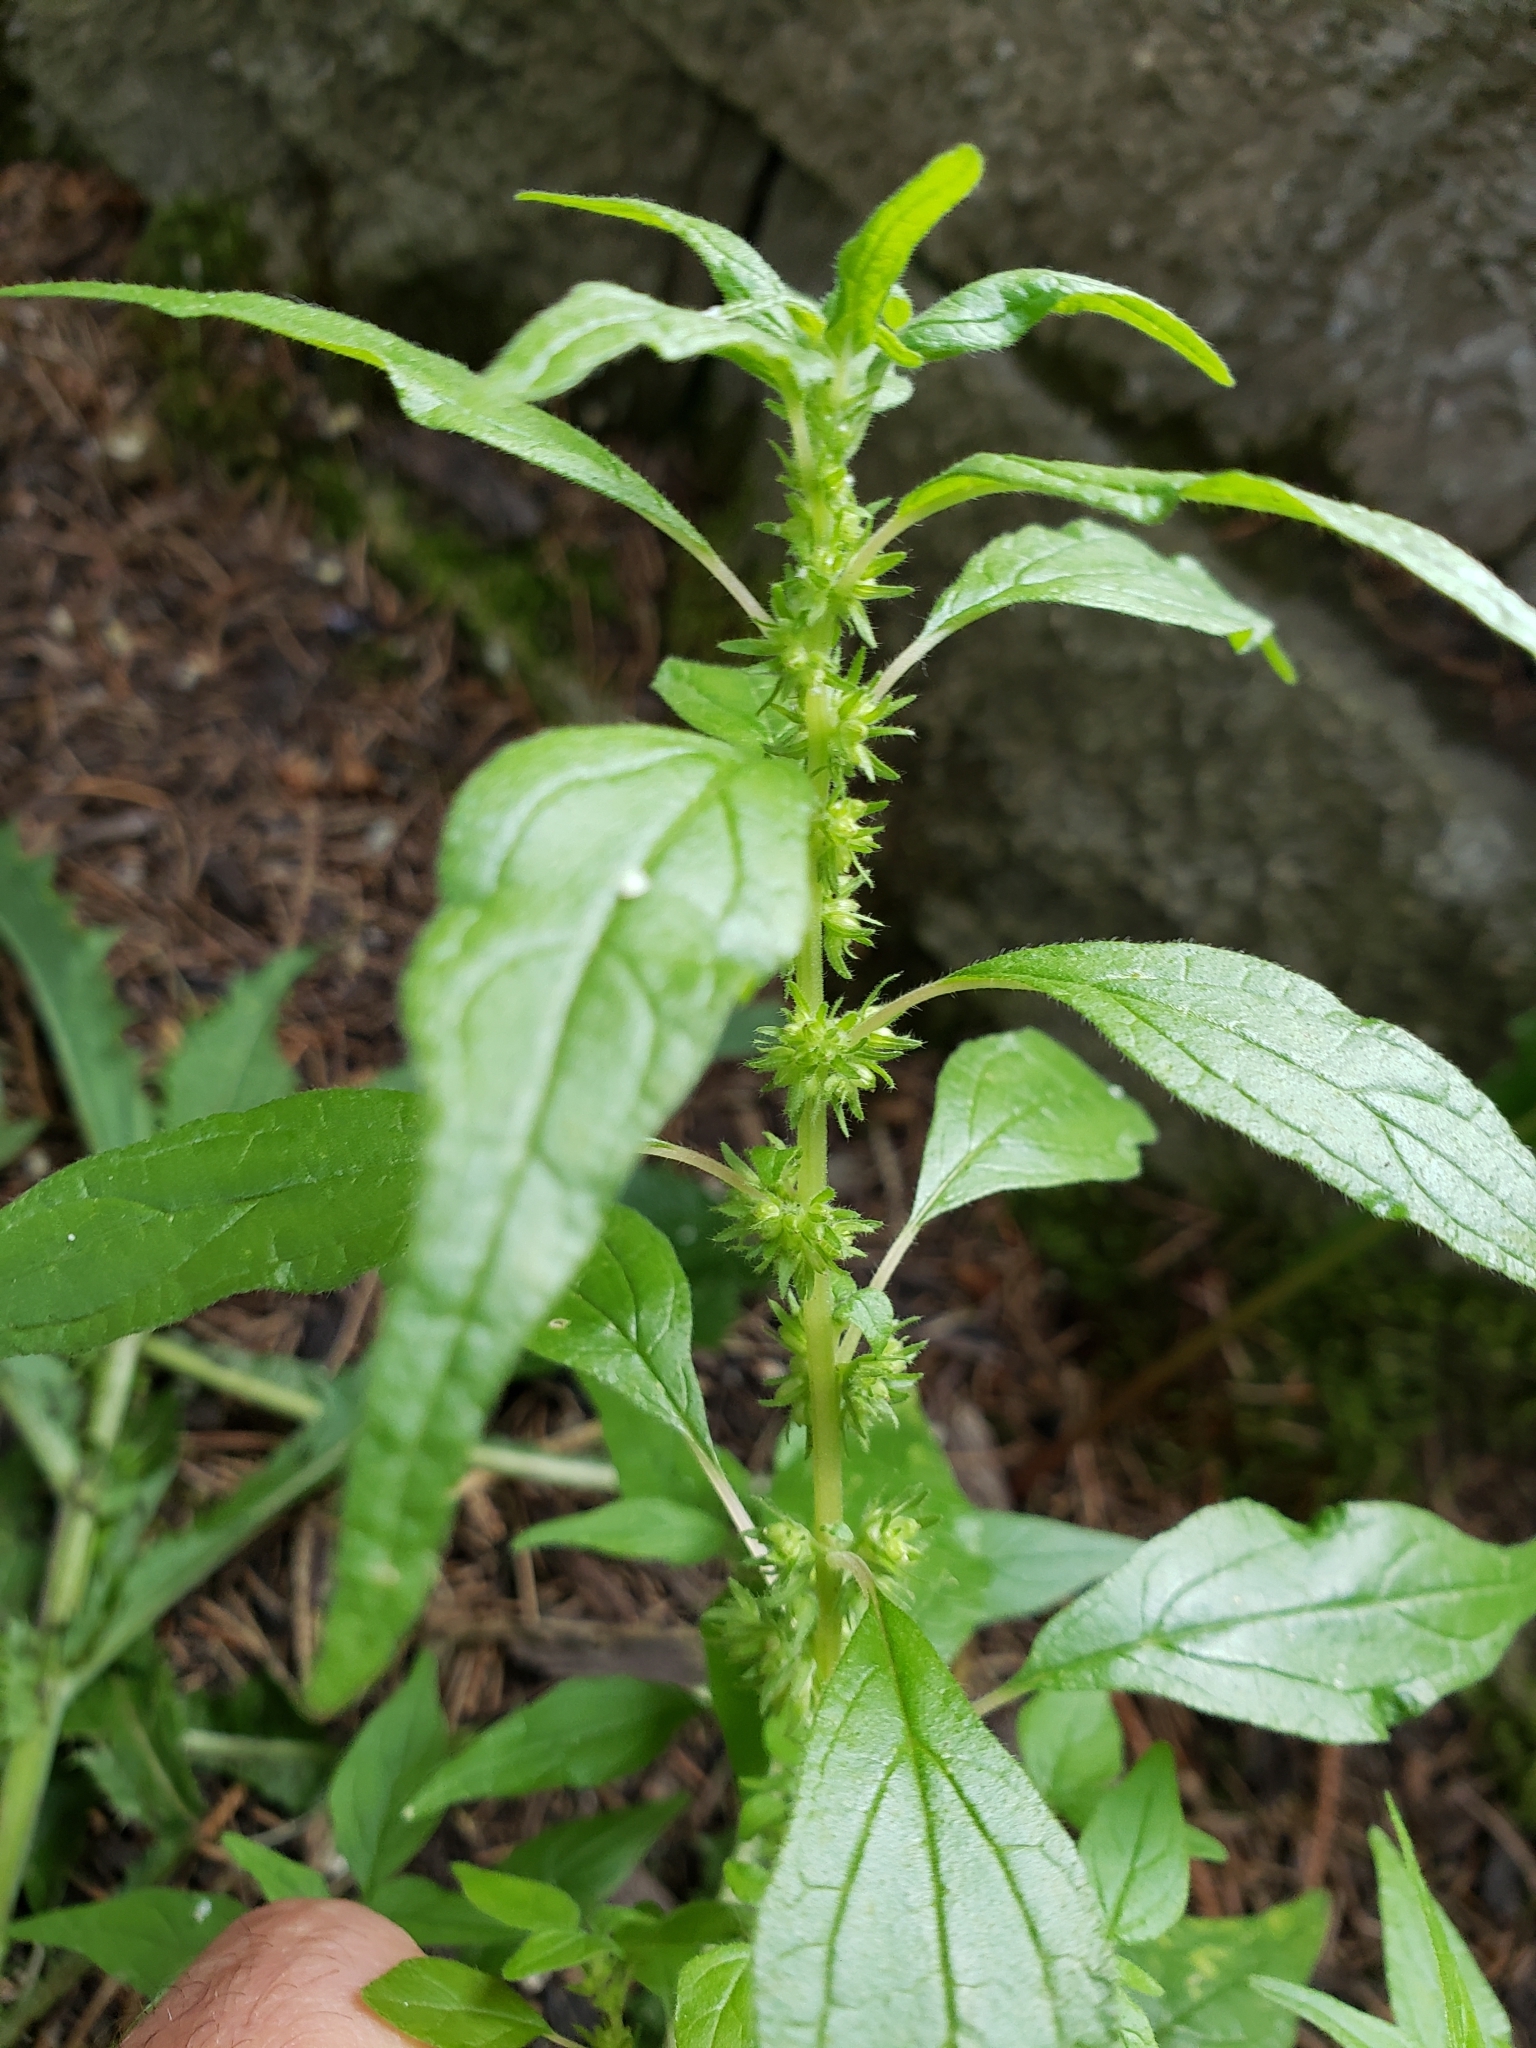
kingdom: Plantae
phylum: Tracheophyta
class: Magnoliopsida
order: Rosales
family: Urticaceae
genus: Parietaria
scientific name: Parietaria pensylvanica
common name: Pennsylvania pellitory
